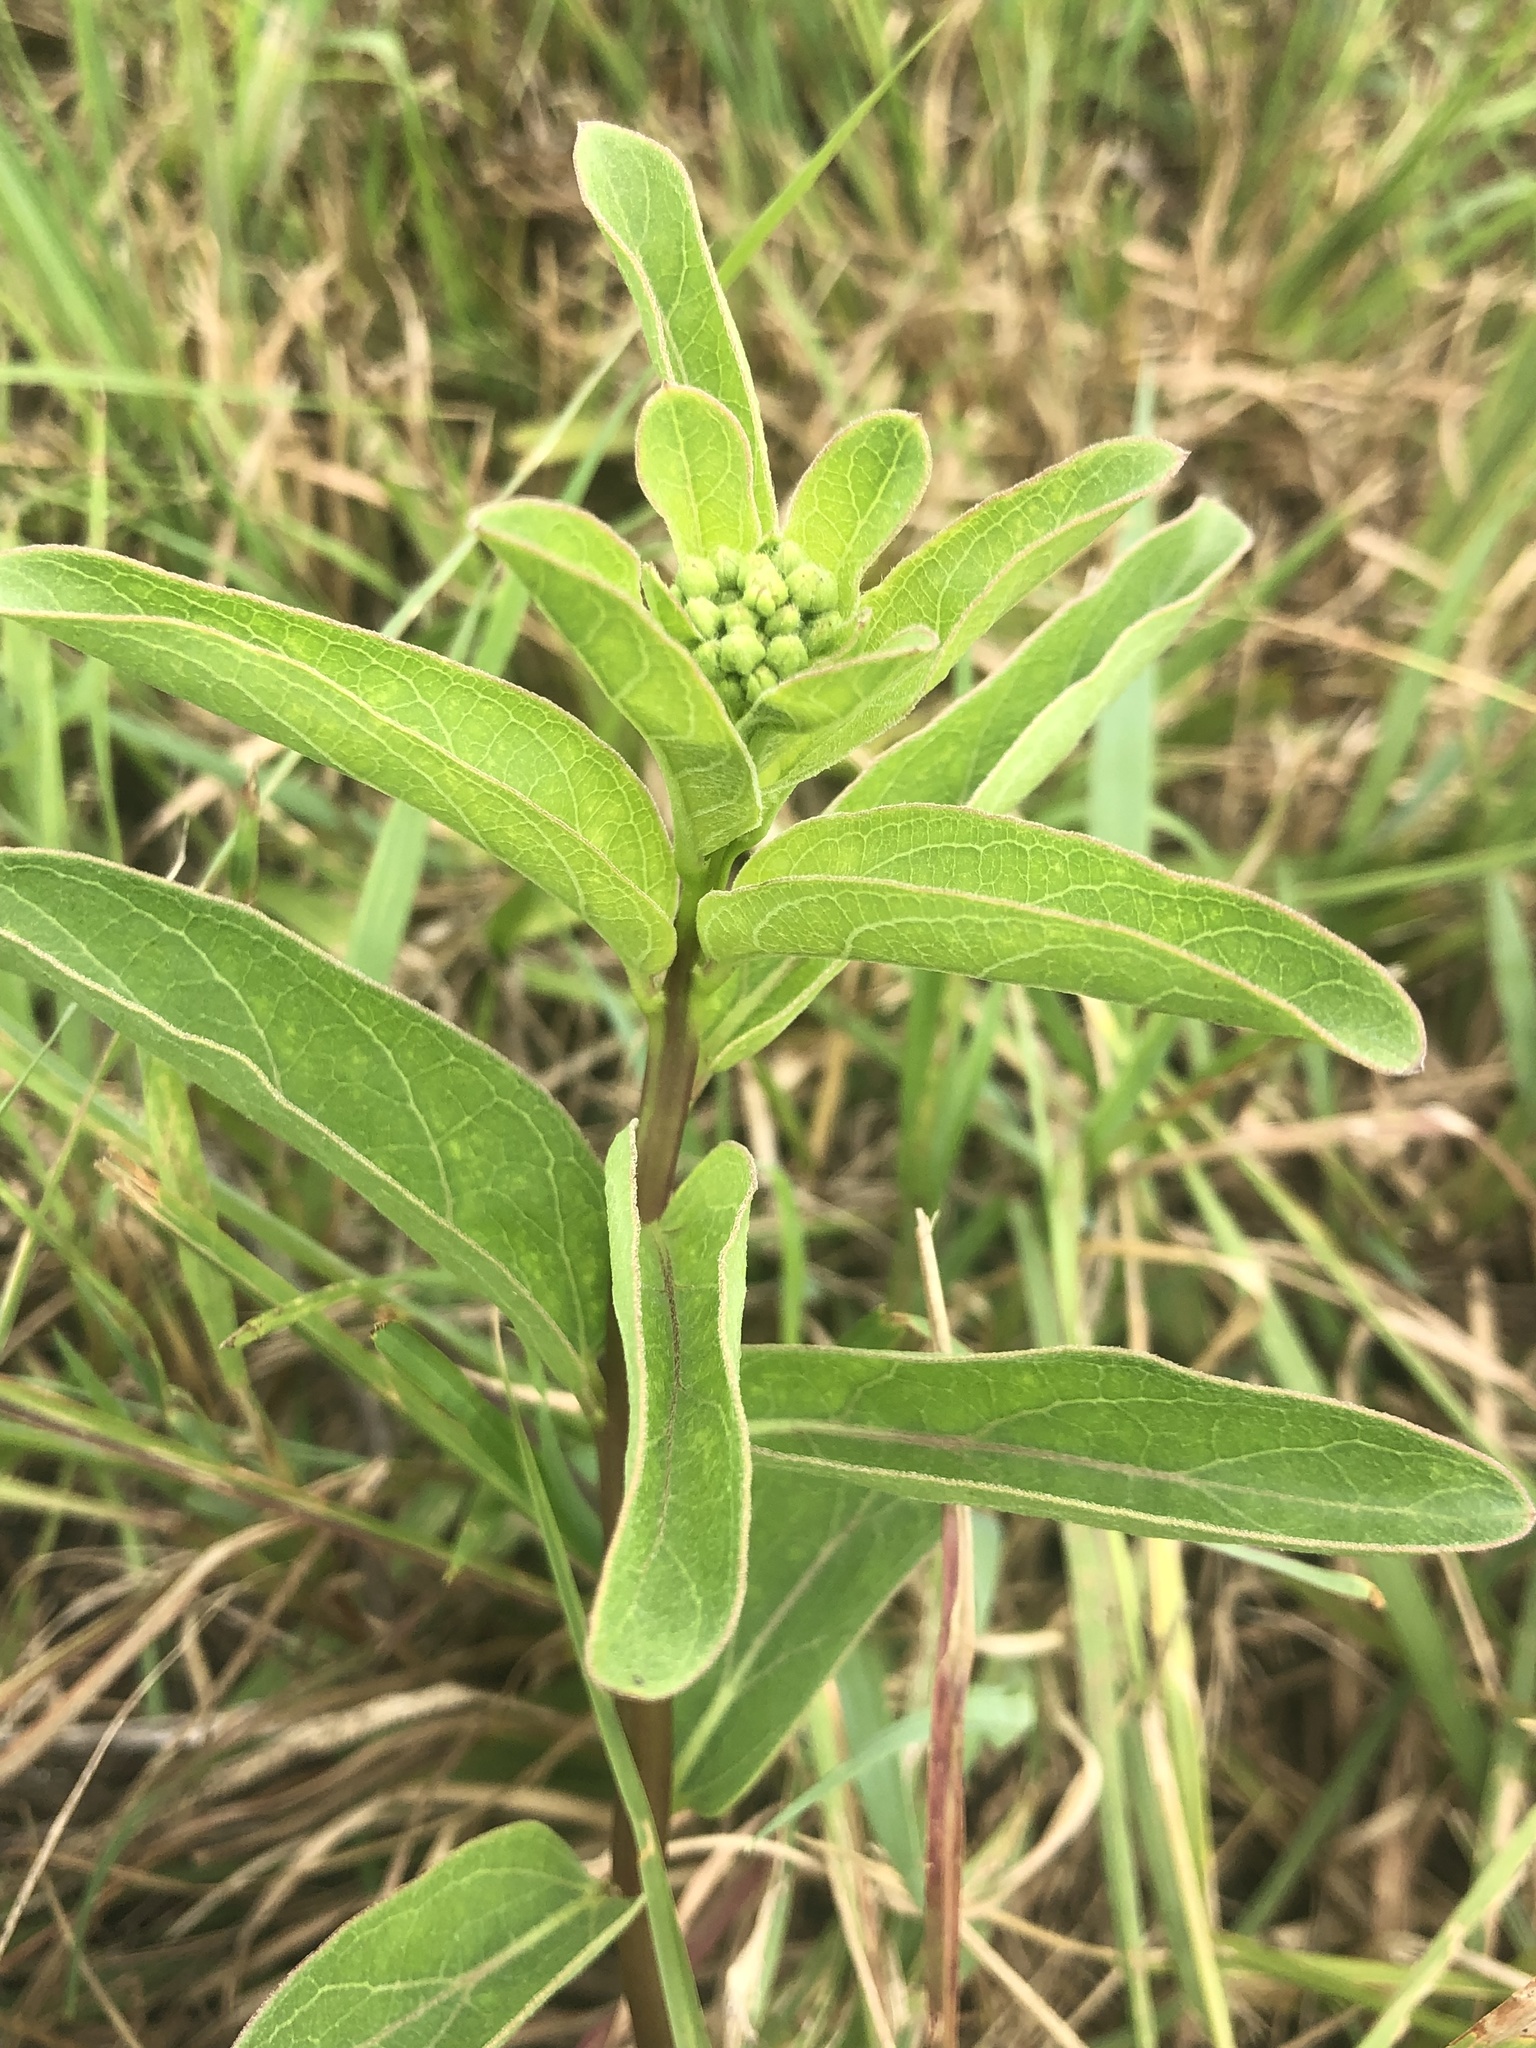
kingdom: Plantae
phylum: Tracheophyta
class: Magnoliopsida
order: Gentianales
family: Apocynaceae
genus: Asclepias
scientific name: Asclepias viridis
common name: Antelope-horns
